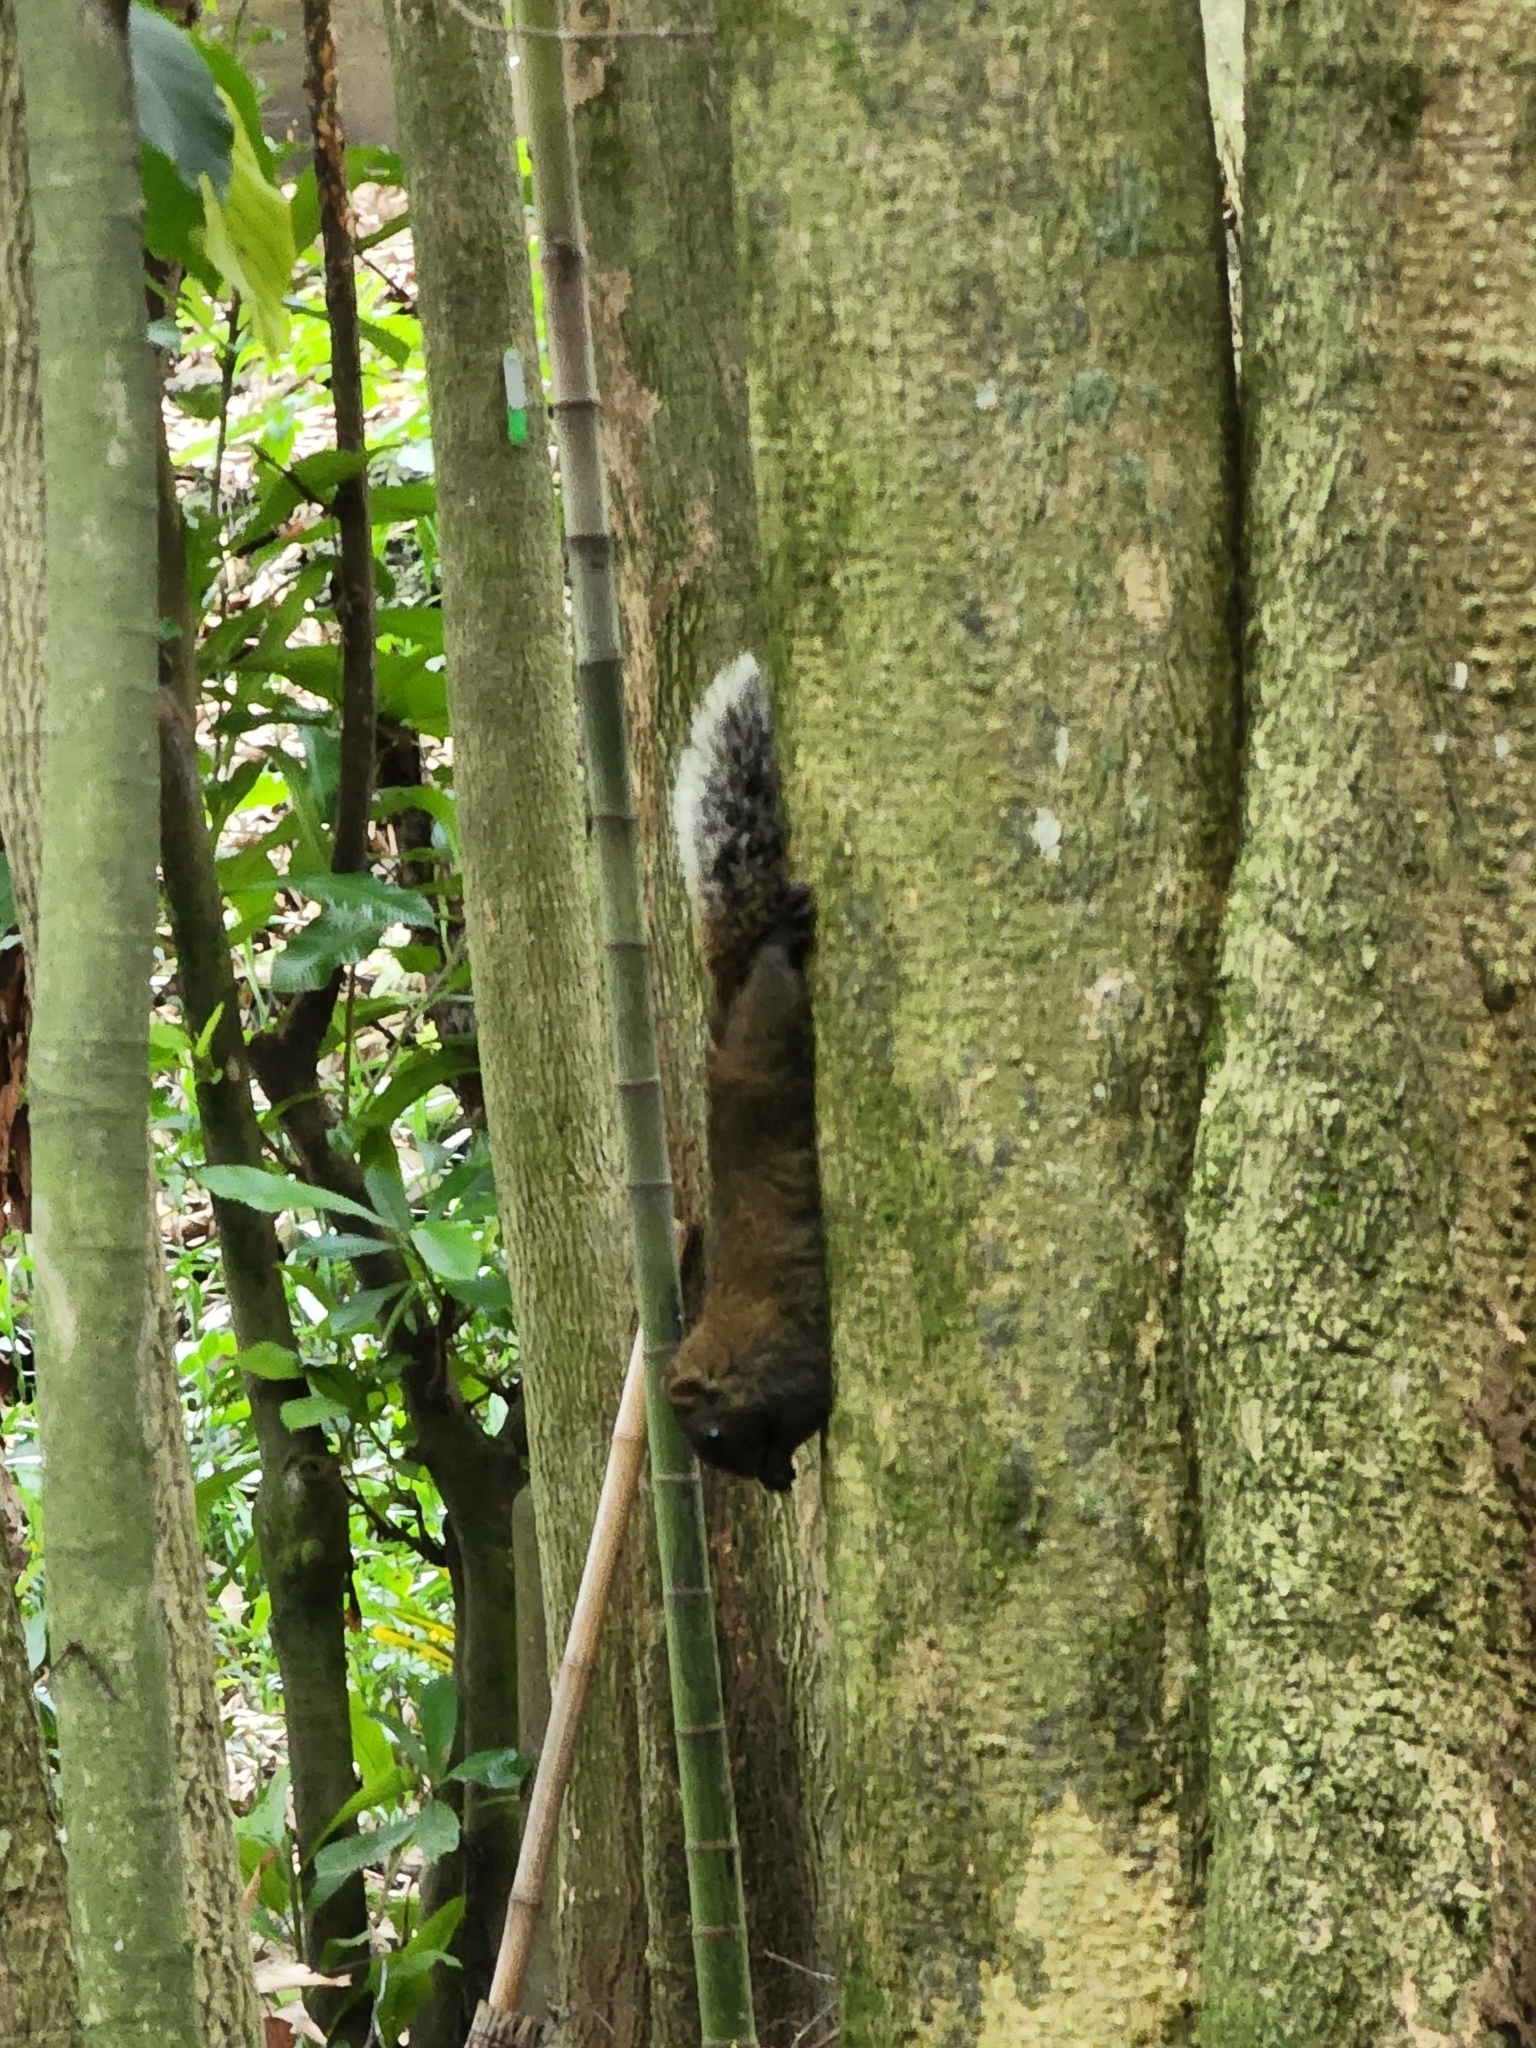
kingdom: Animalia
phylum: Chordata
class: Mammalia
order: Rodentia
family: Sciuridae
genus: Callosciurus
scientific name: Callosciurus erythraeus
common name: Pallas's squirrel
